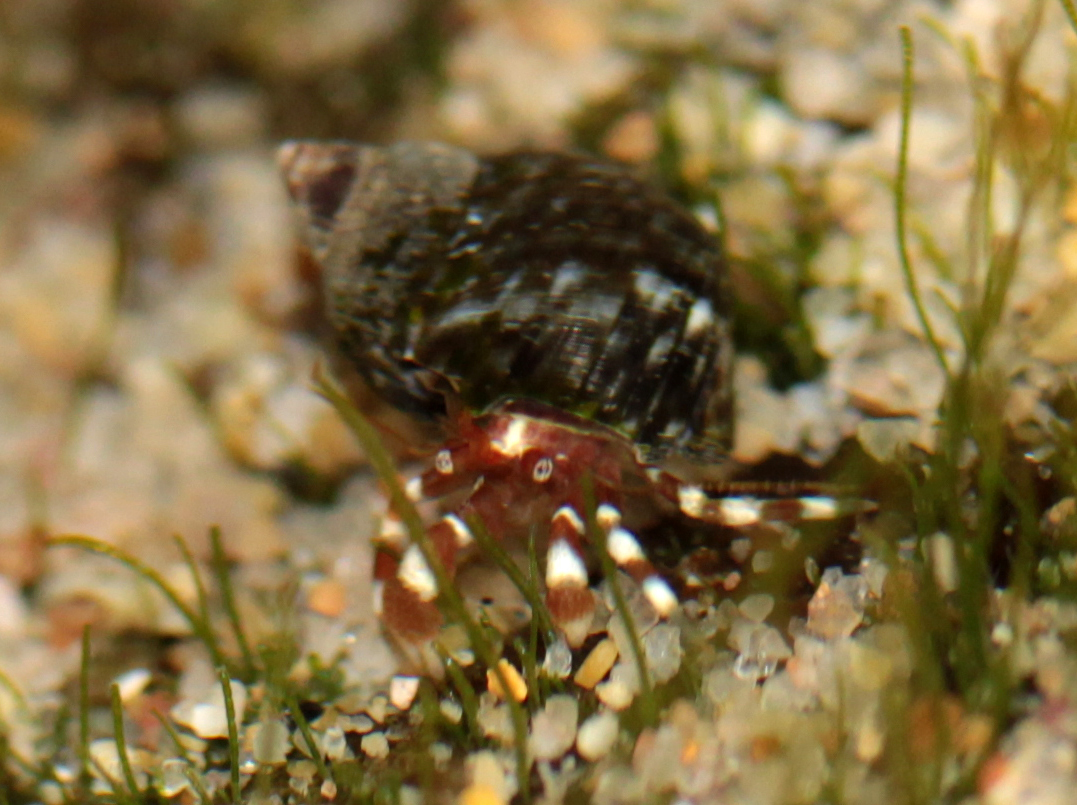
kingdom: Animalia
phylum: Arthropoda
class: Malacostraca
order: Decapoda
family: Paguridae
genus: Pagurus
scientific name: Pagurus samuelis
